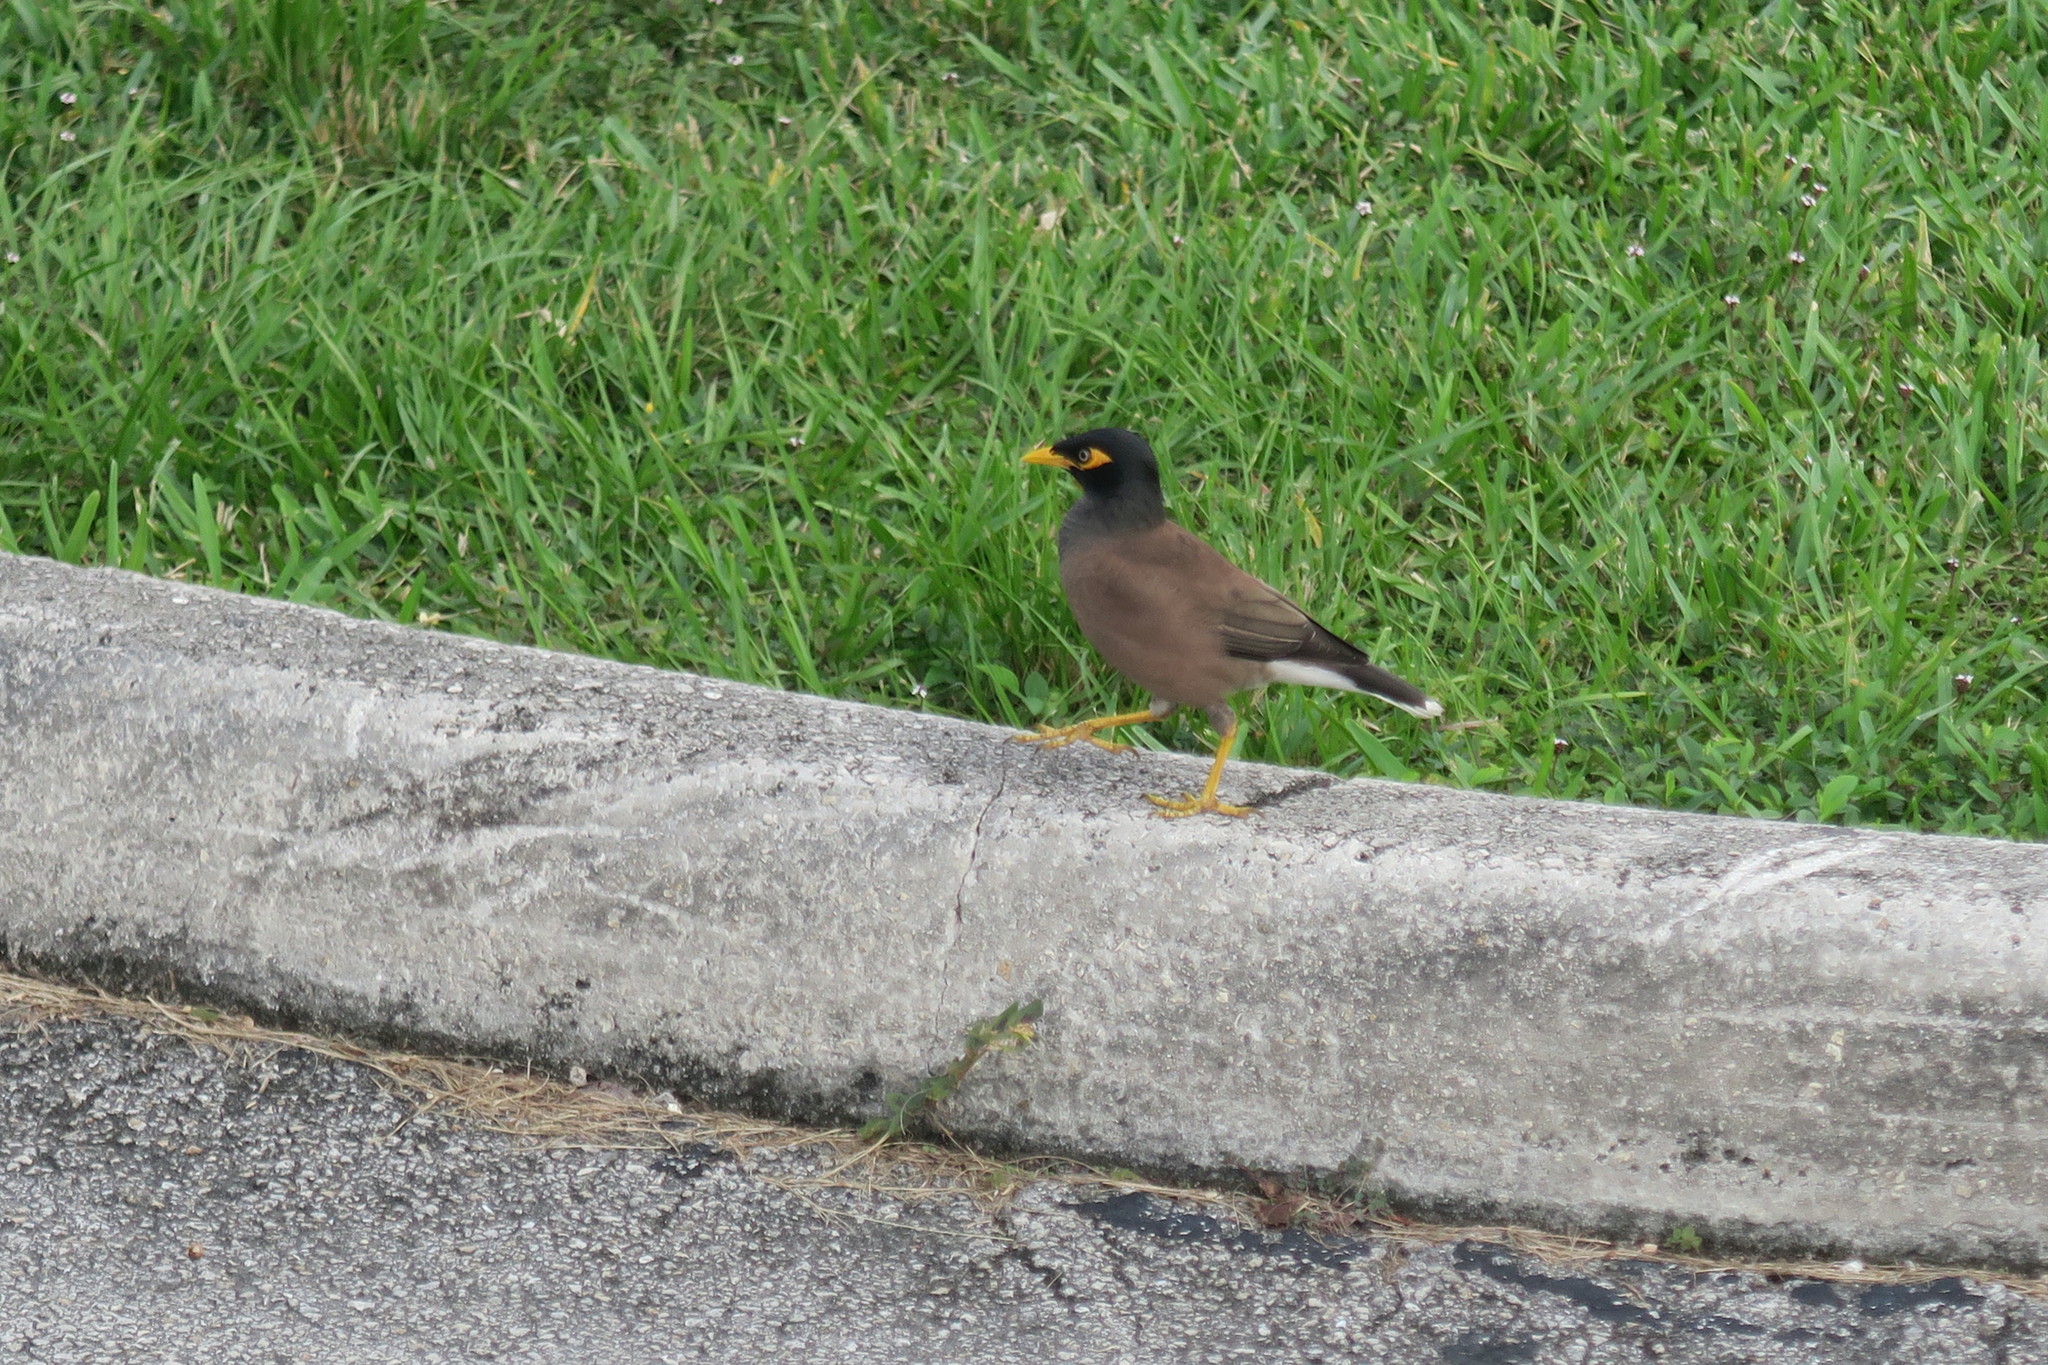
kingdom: Animalia
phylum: Chordata
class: Aves
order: Passeriformes
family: Sturnidae
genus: Acridotheres
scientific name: Acridotheres tristis
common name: Common myna
